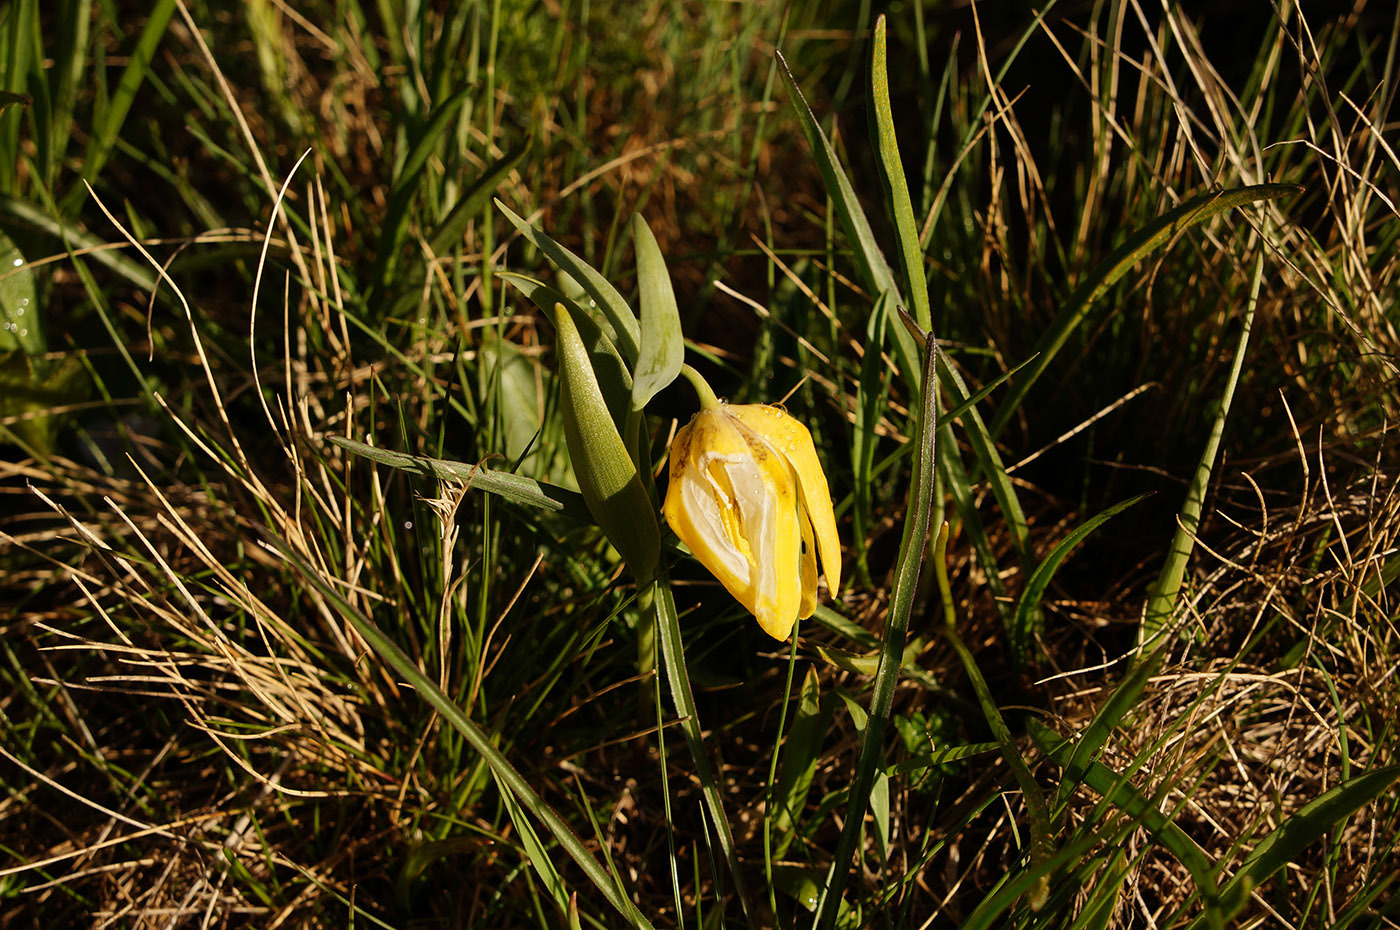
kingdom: Plantae
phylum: Tracheophyta
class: Liliopsida
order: Liliales
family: Liliaceae
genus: Fritillaria
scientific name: Fritillaria collina
